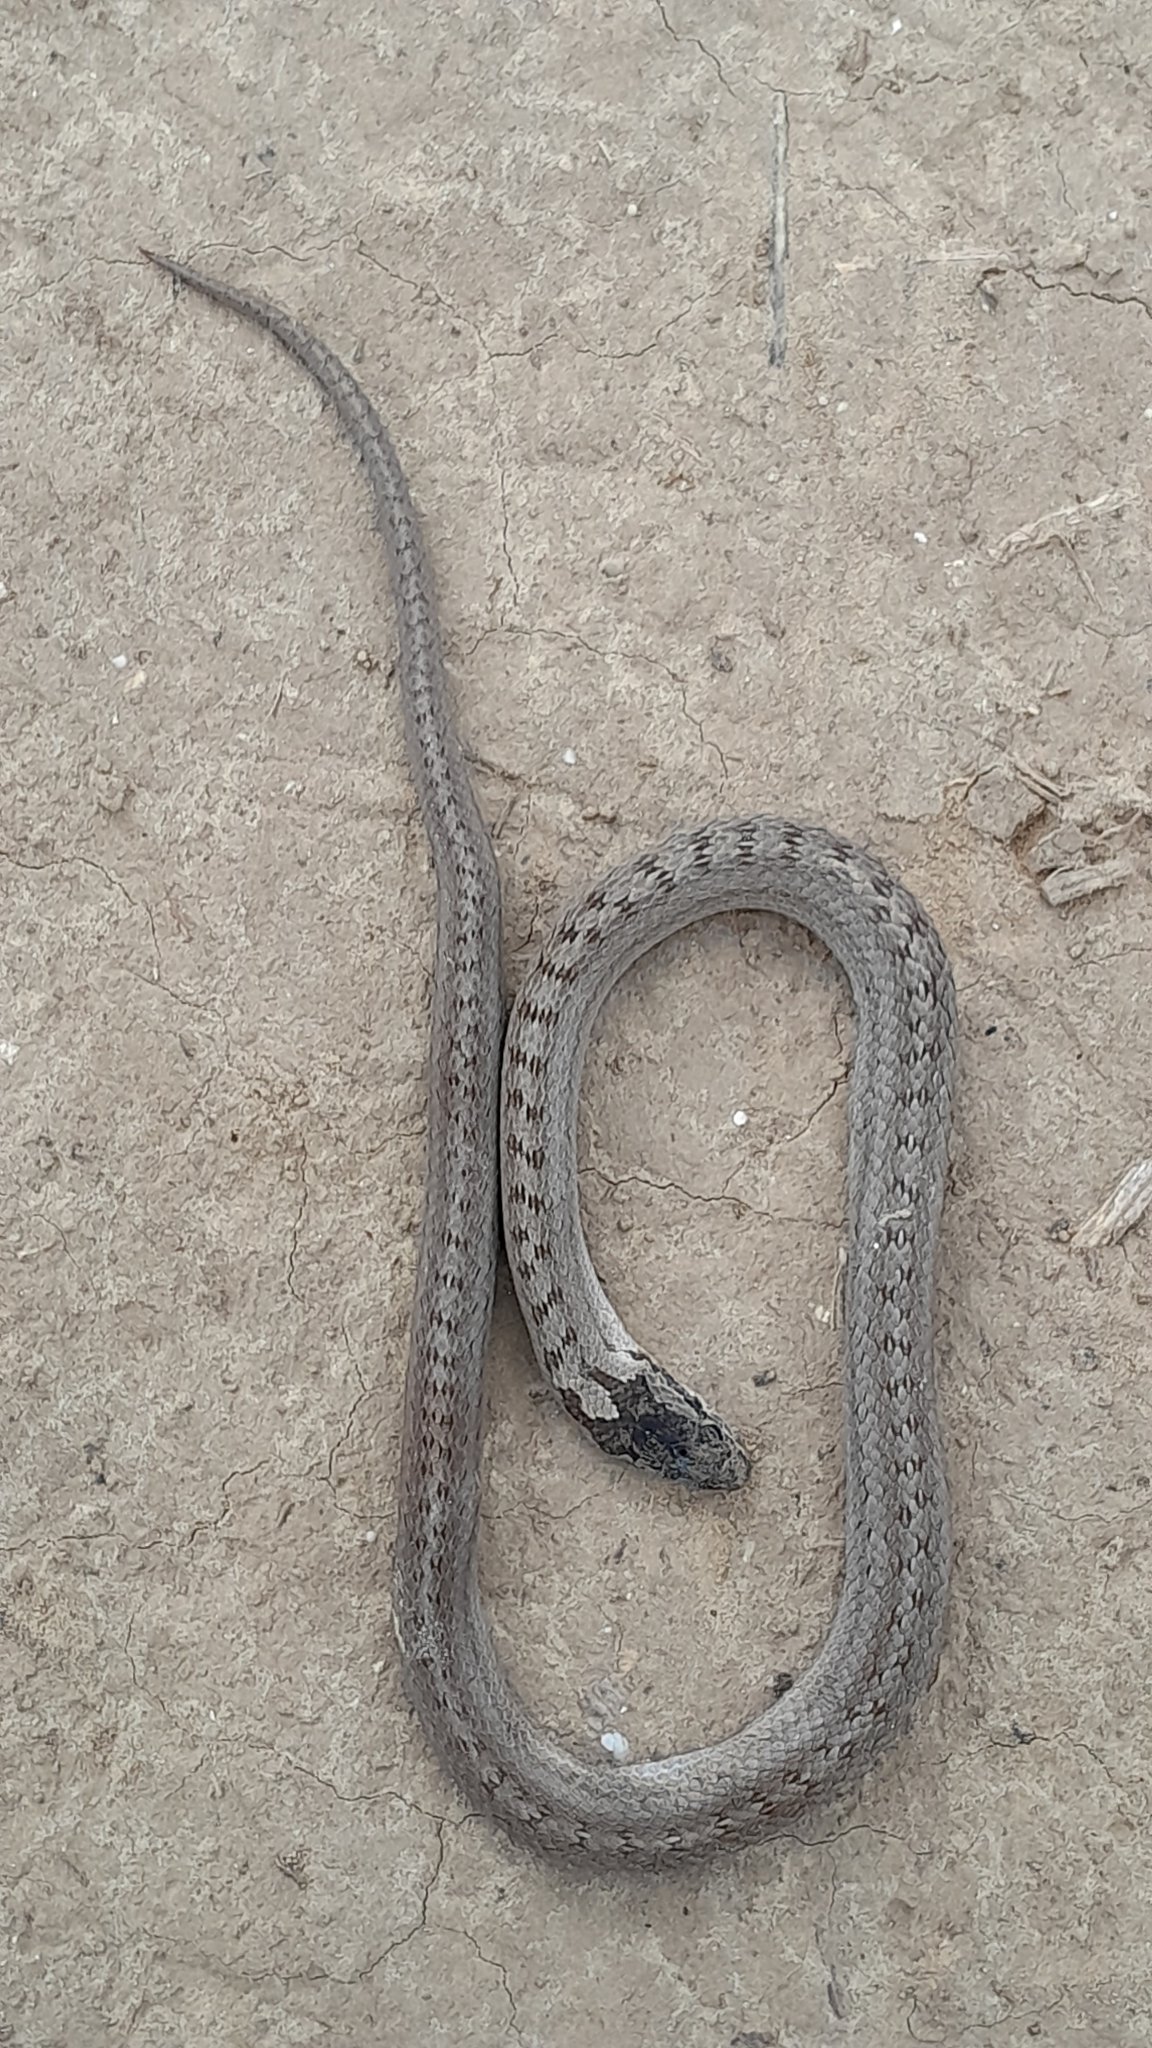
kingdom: Animalia
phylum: Chordata
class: Squamata
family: Colubridae
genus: Coronella
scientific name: Coronella austriaca
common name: Smooth snake
